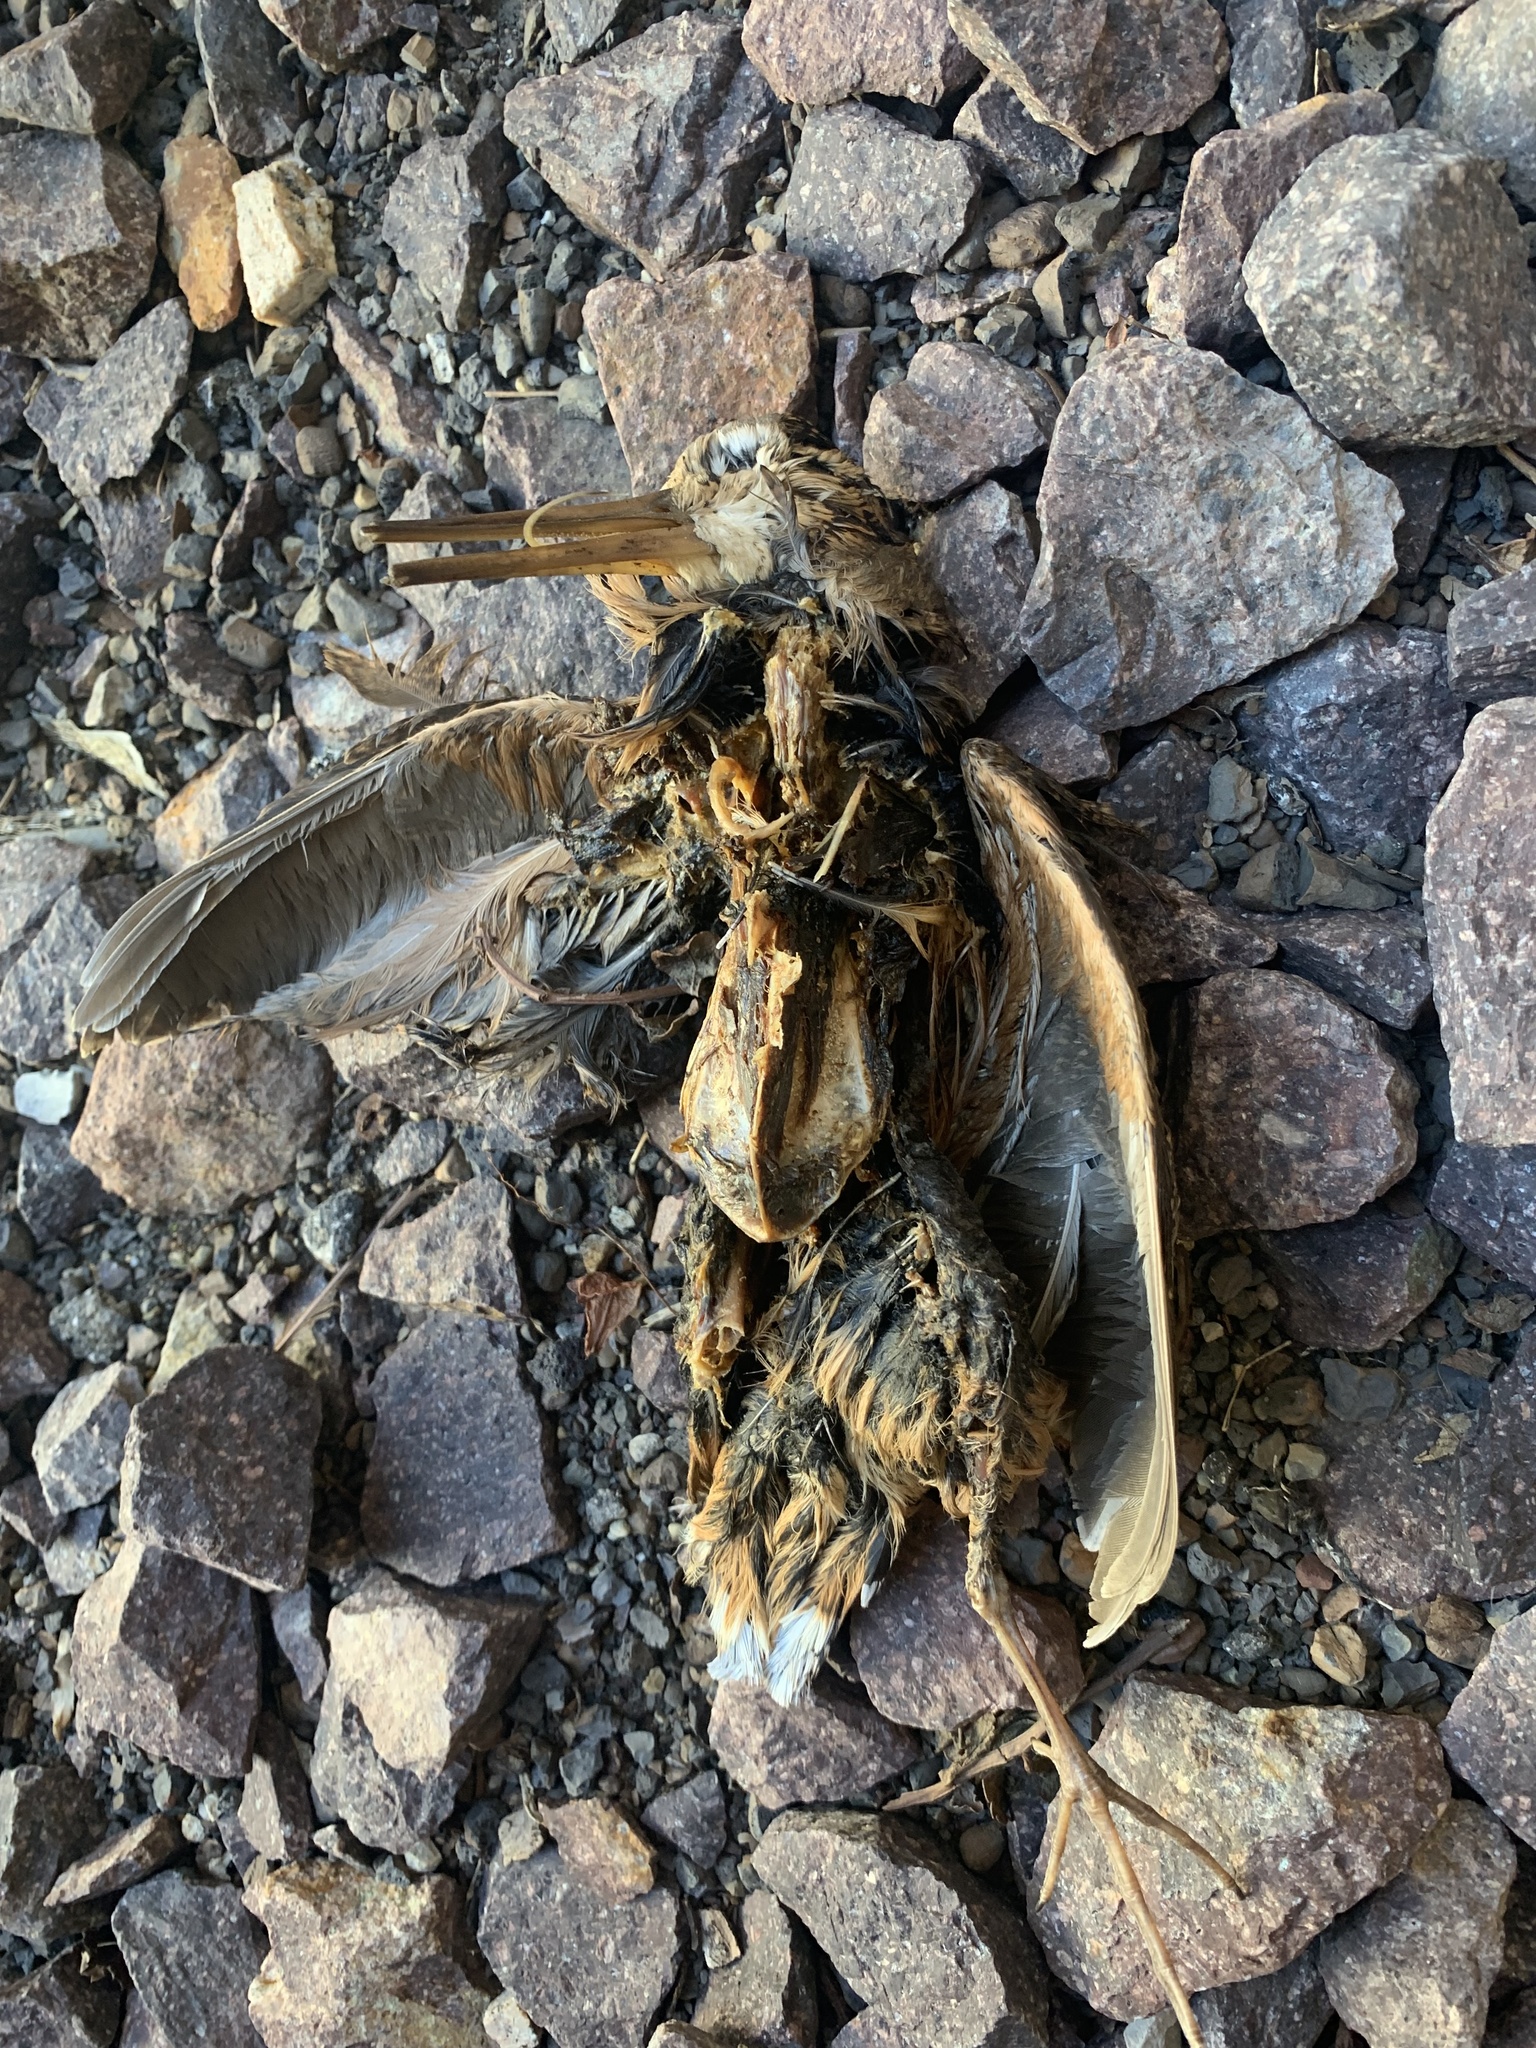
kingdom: Animalia
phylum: Chordata
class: Aves
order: Charadriiformes
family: Scolopacidae
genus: Scolopax
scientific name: Scolopax minor
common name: American woodcock
